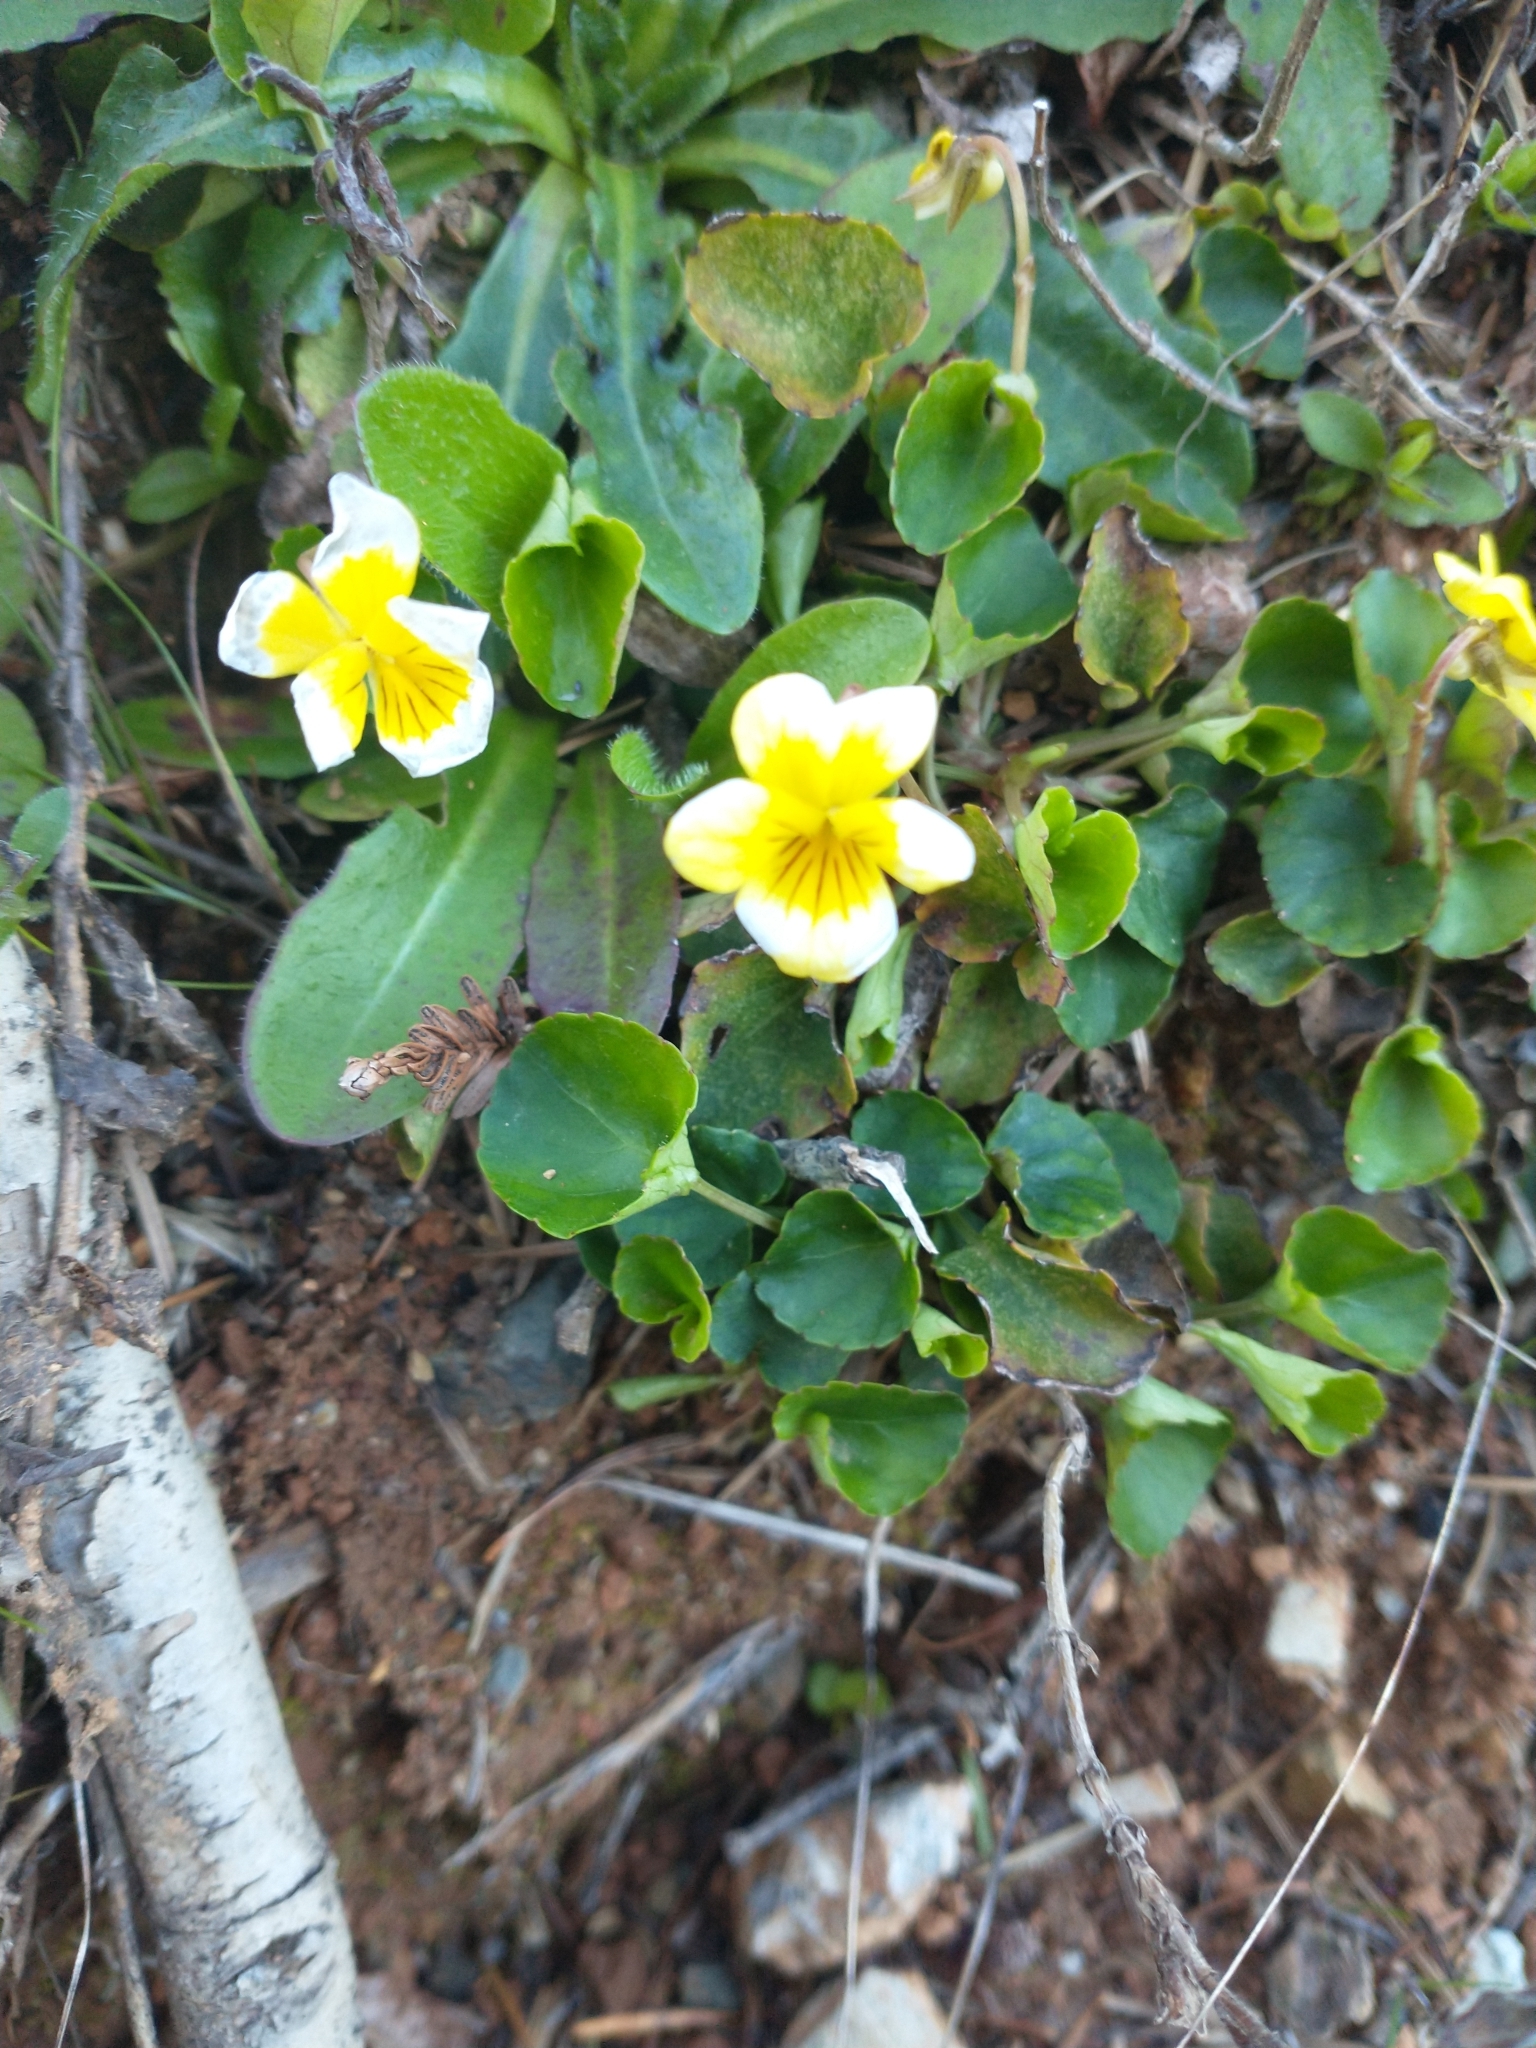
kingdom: Plantae
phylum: Tracheophyta
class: Magnoliopsida
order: Malpighiales
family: Violaceae
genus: Viola
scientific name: Viola sempervirens
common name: Evergreen violet
